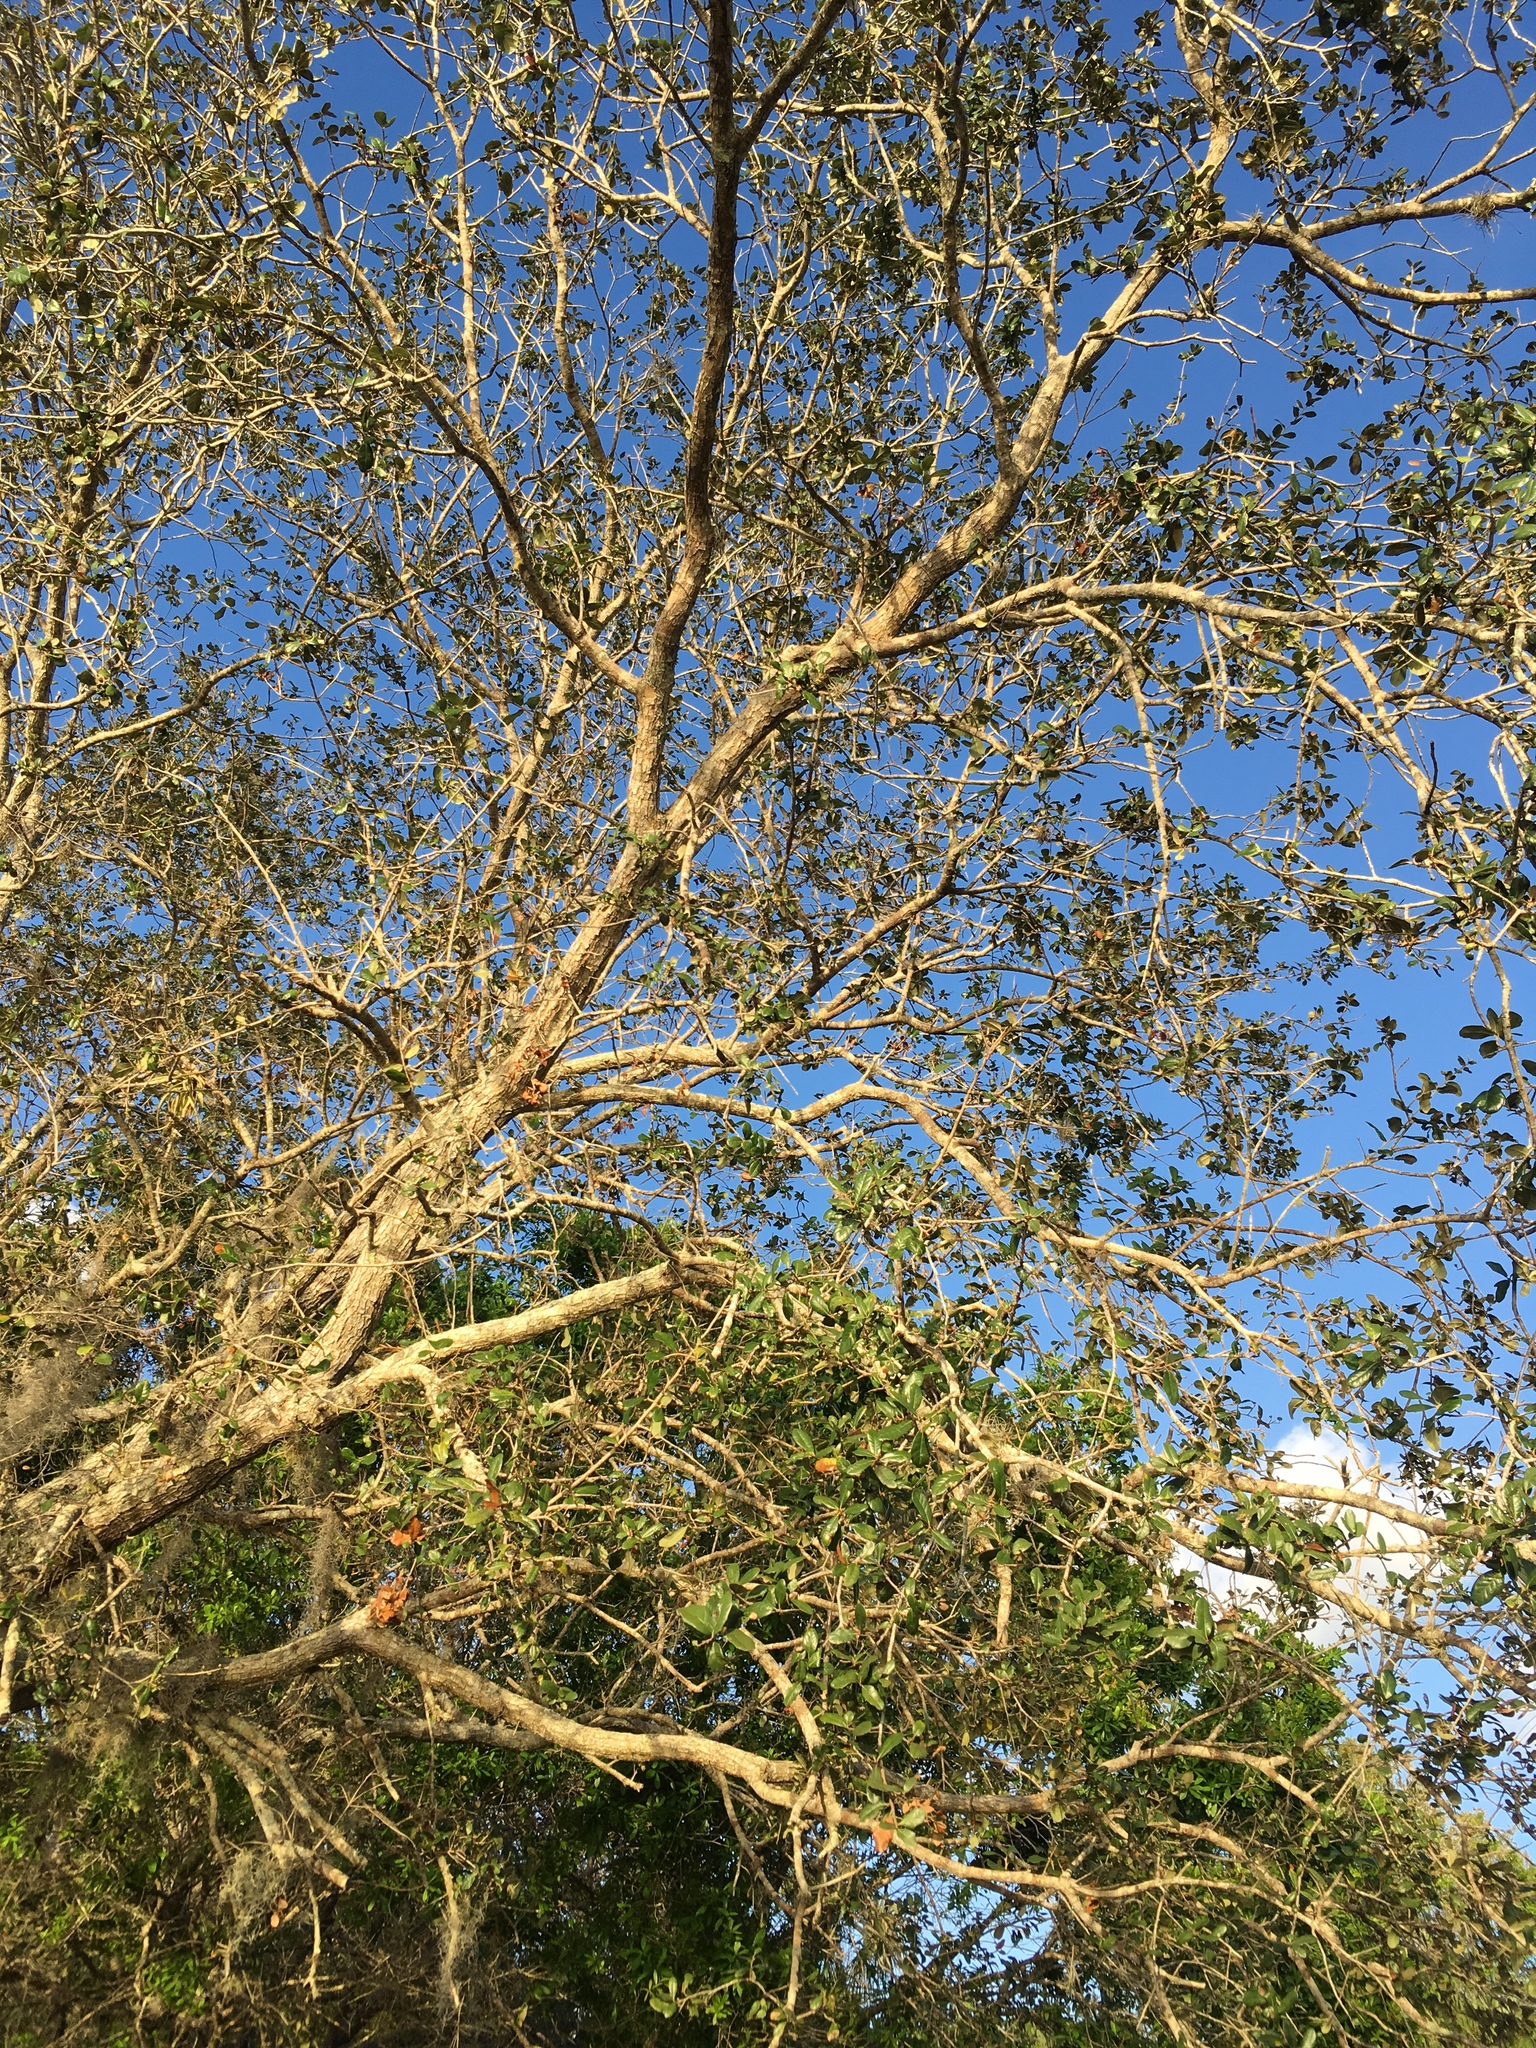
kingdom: Plantae
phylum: Tracheophyta
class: Magnoliopsida
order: Fagales
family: Fagaceae
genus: Quercus
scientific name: Quercus virginiana
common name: Southern live oak
